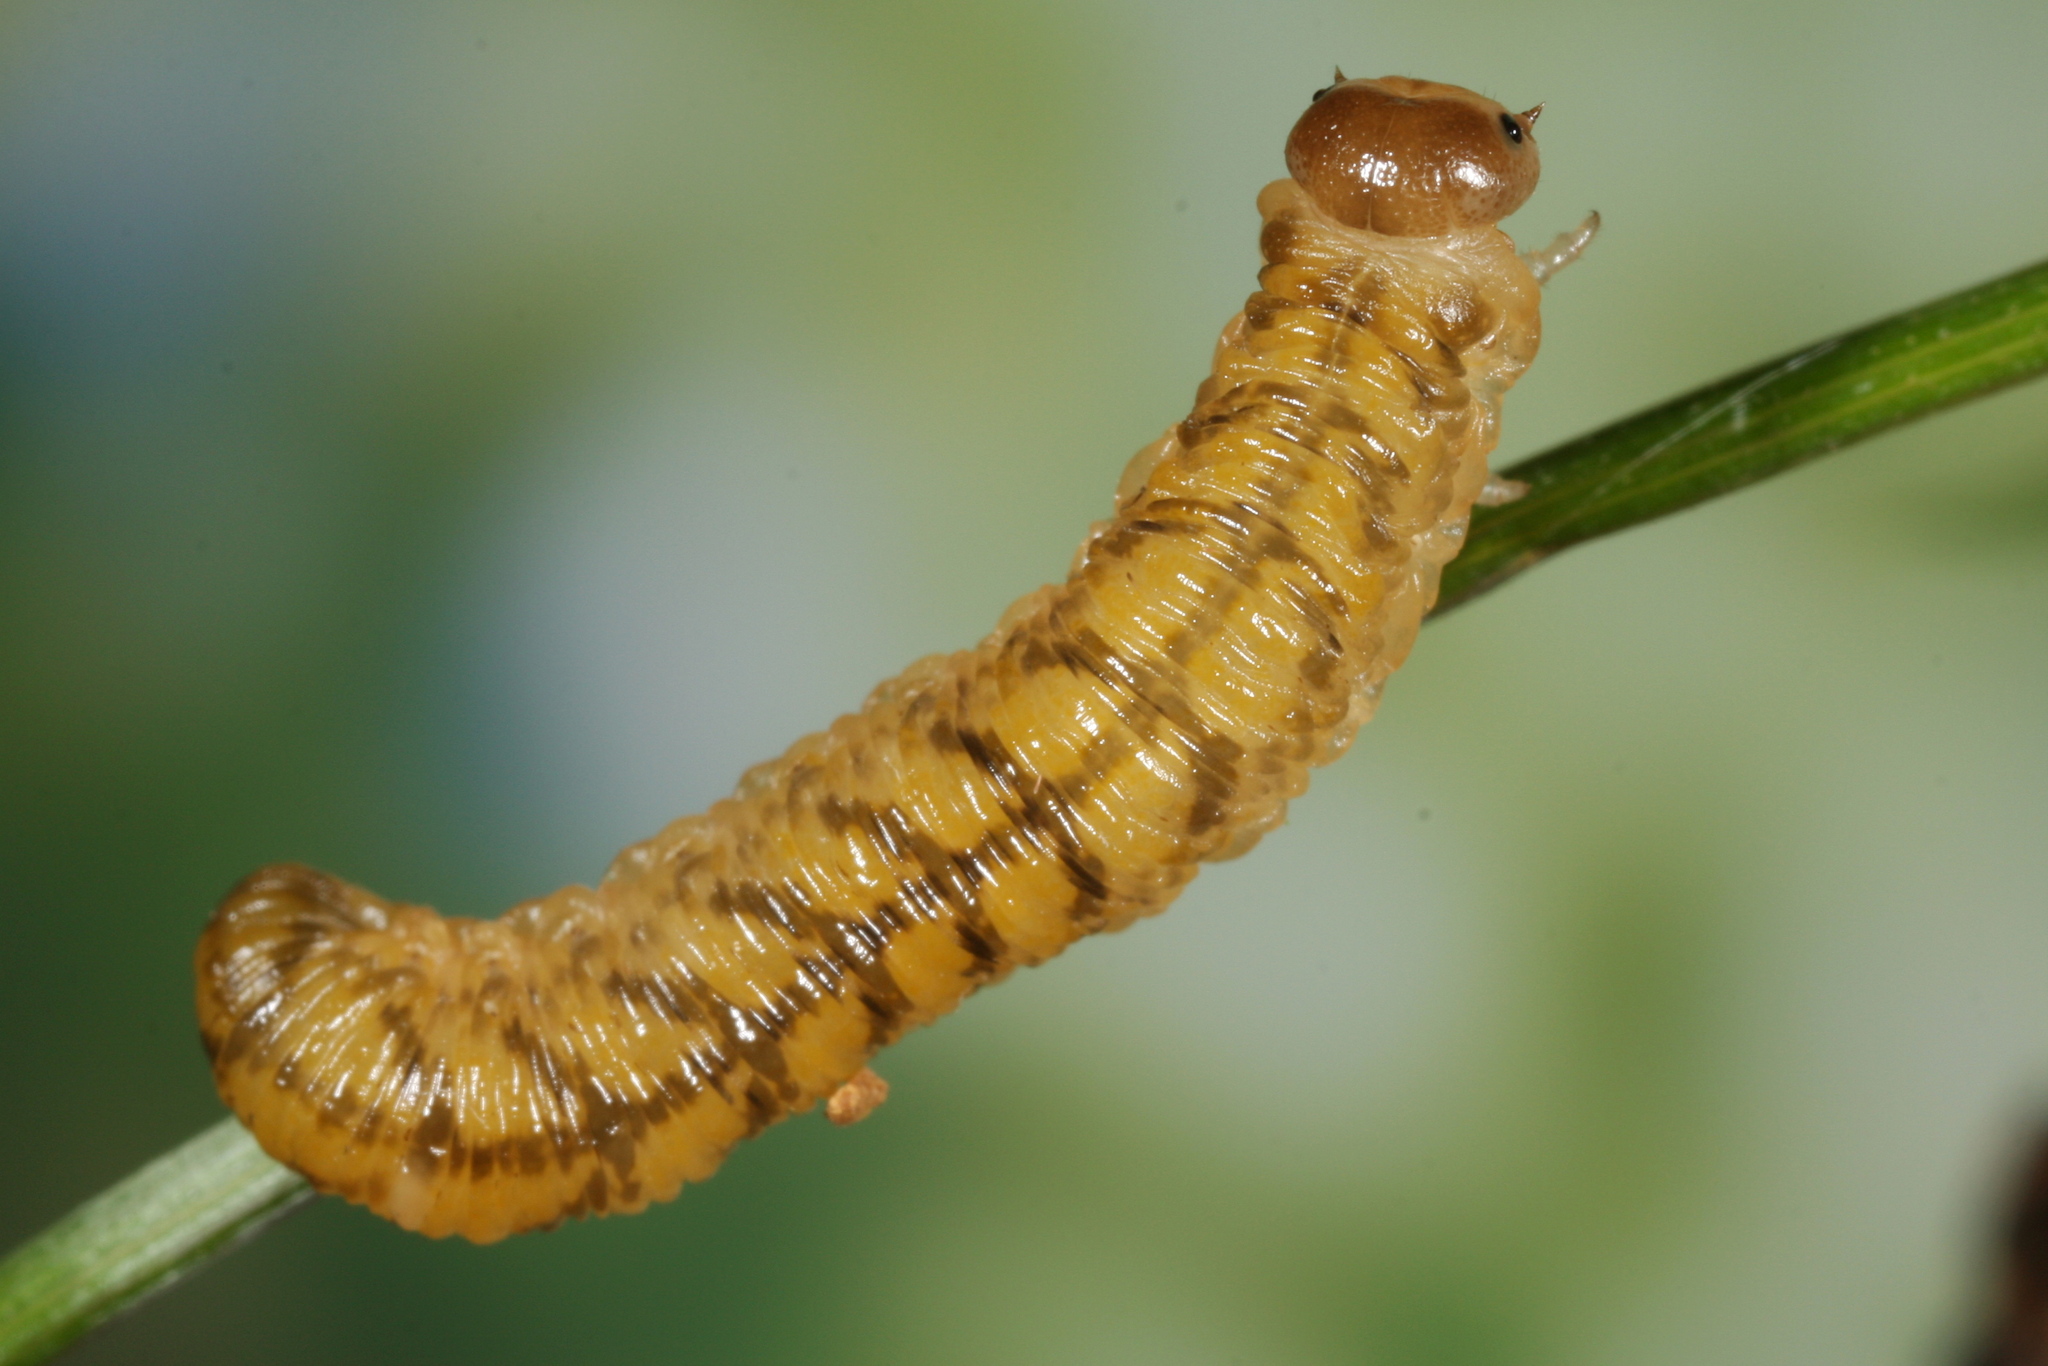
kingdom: Animalia
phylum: Arthropoda
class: Insecta
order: Hymenoptera
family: Tenthredinidae
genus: Tenthredo
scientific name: Tenthredo bipunctula
